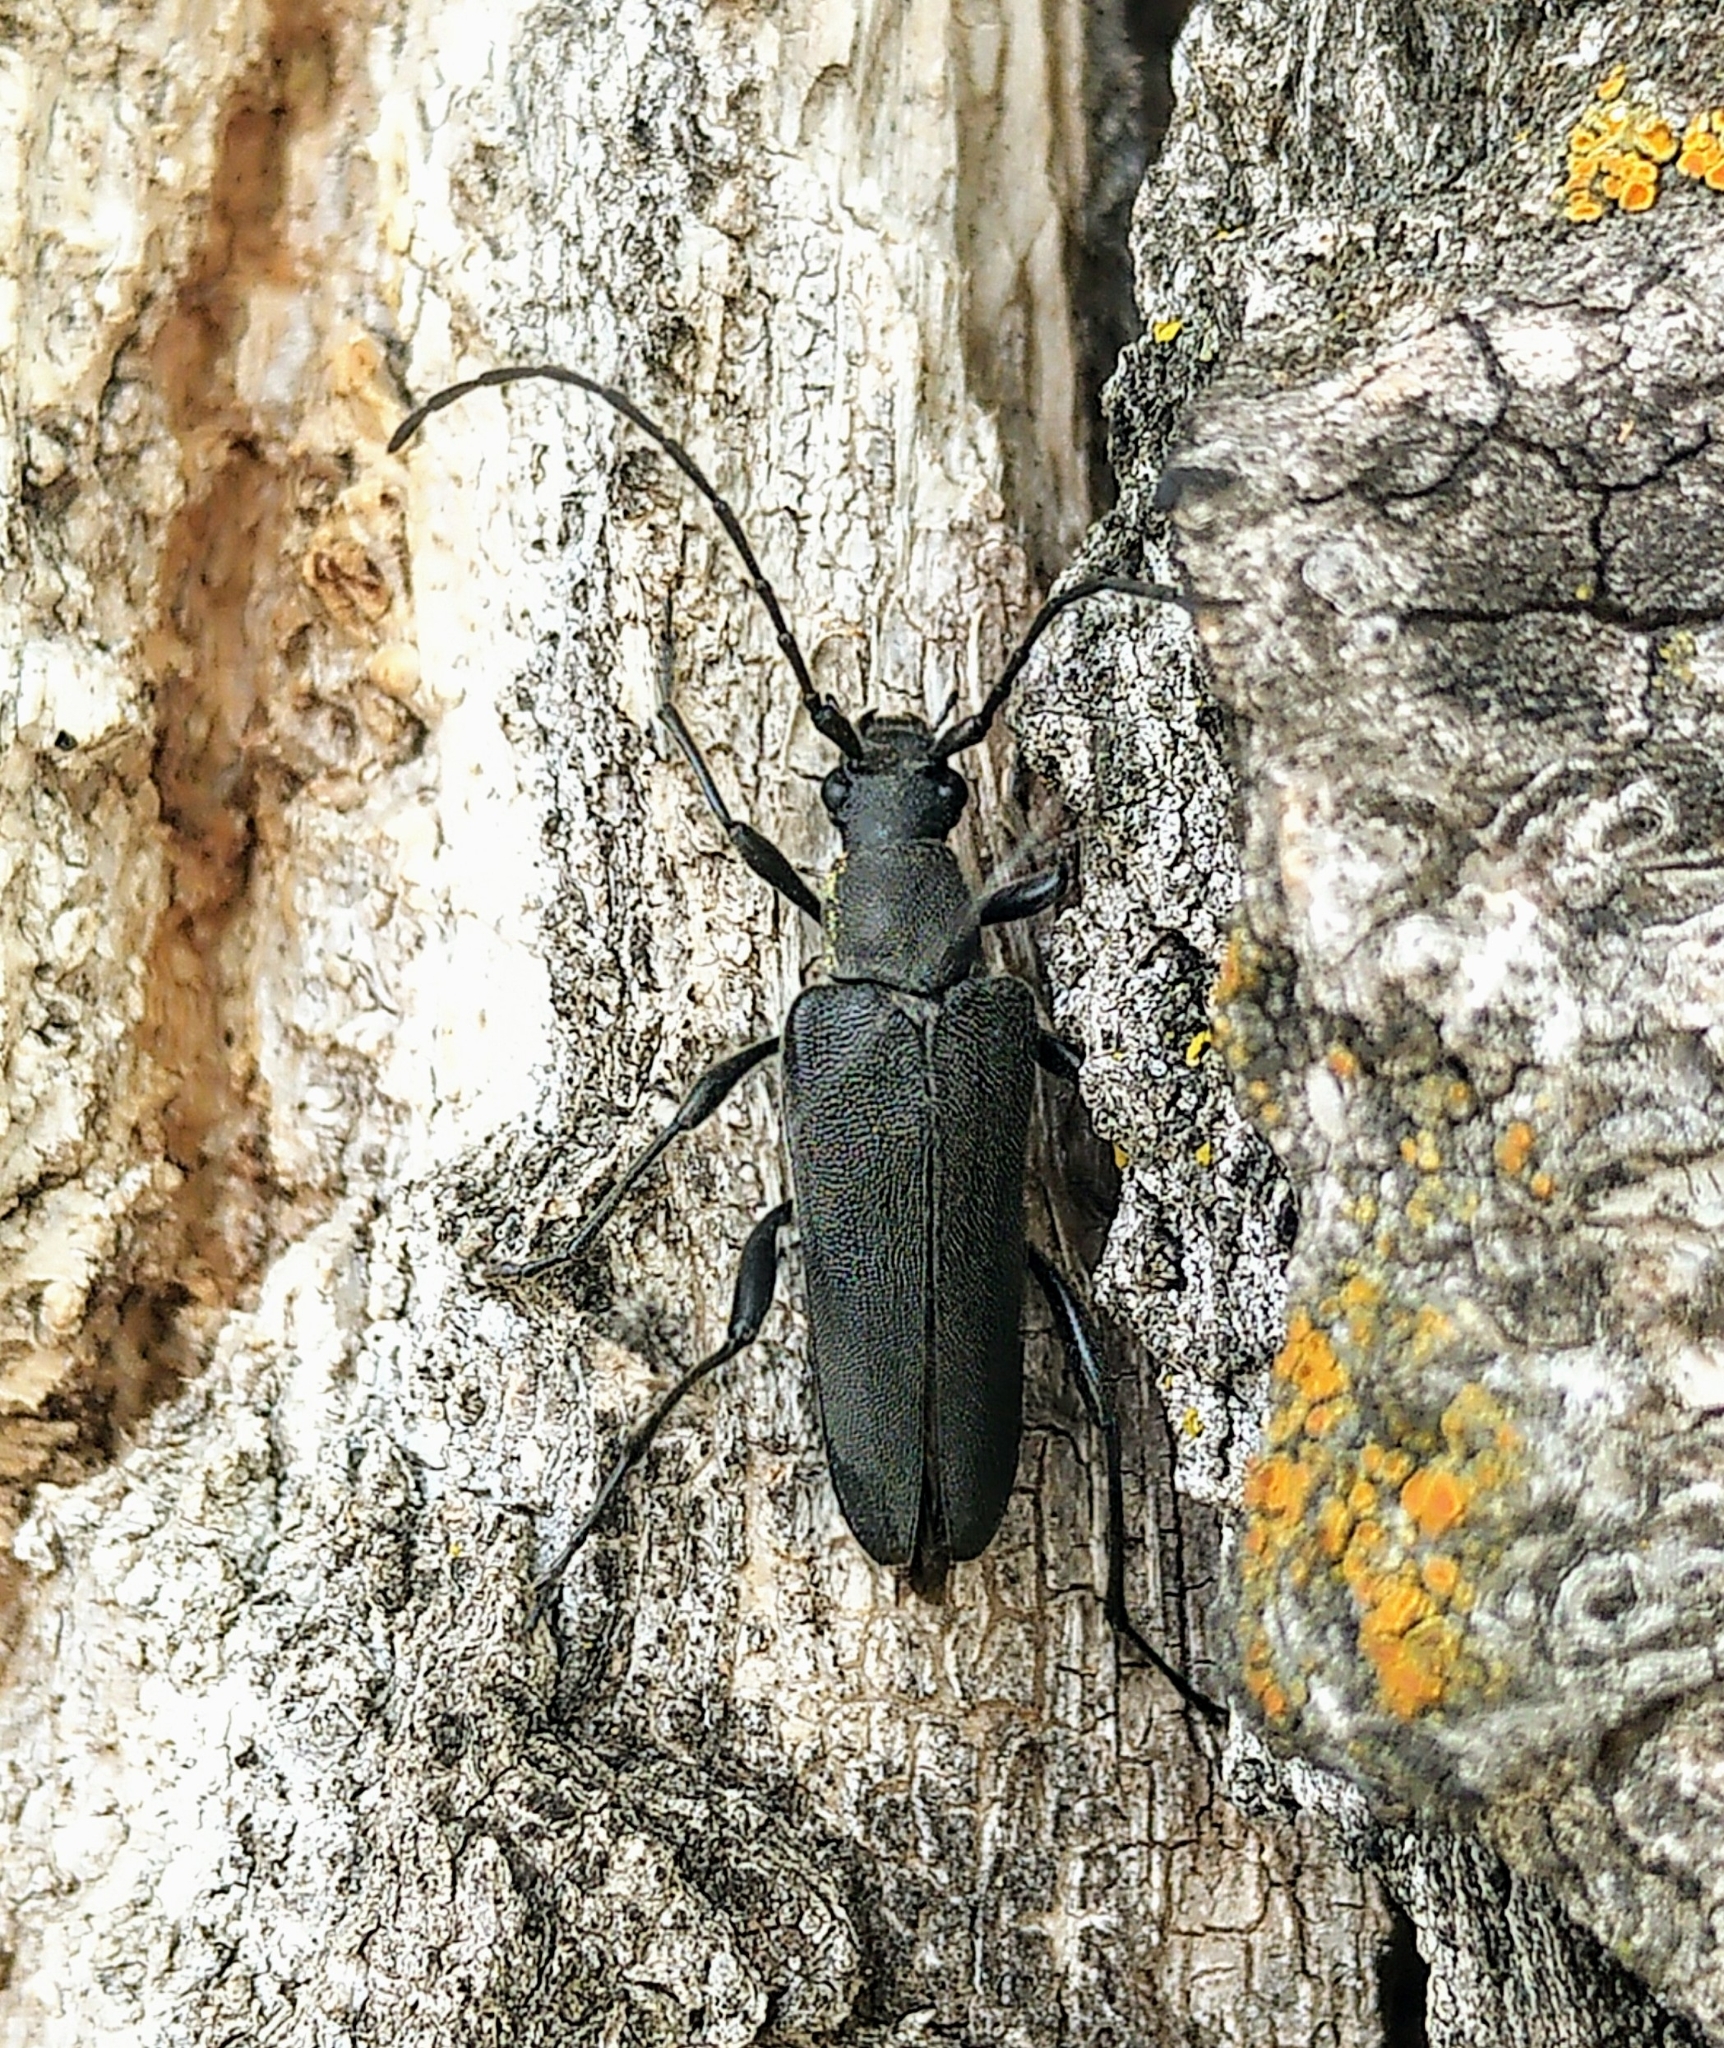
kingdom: Animalia
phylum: Arthropoda
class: Insecta
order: Coleoptera
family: Cerambycidae
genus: Trachysida
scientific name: Trachysida mutabilis
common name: Changeable flower longhorn
